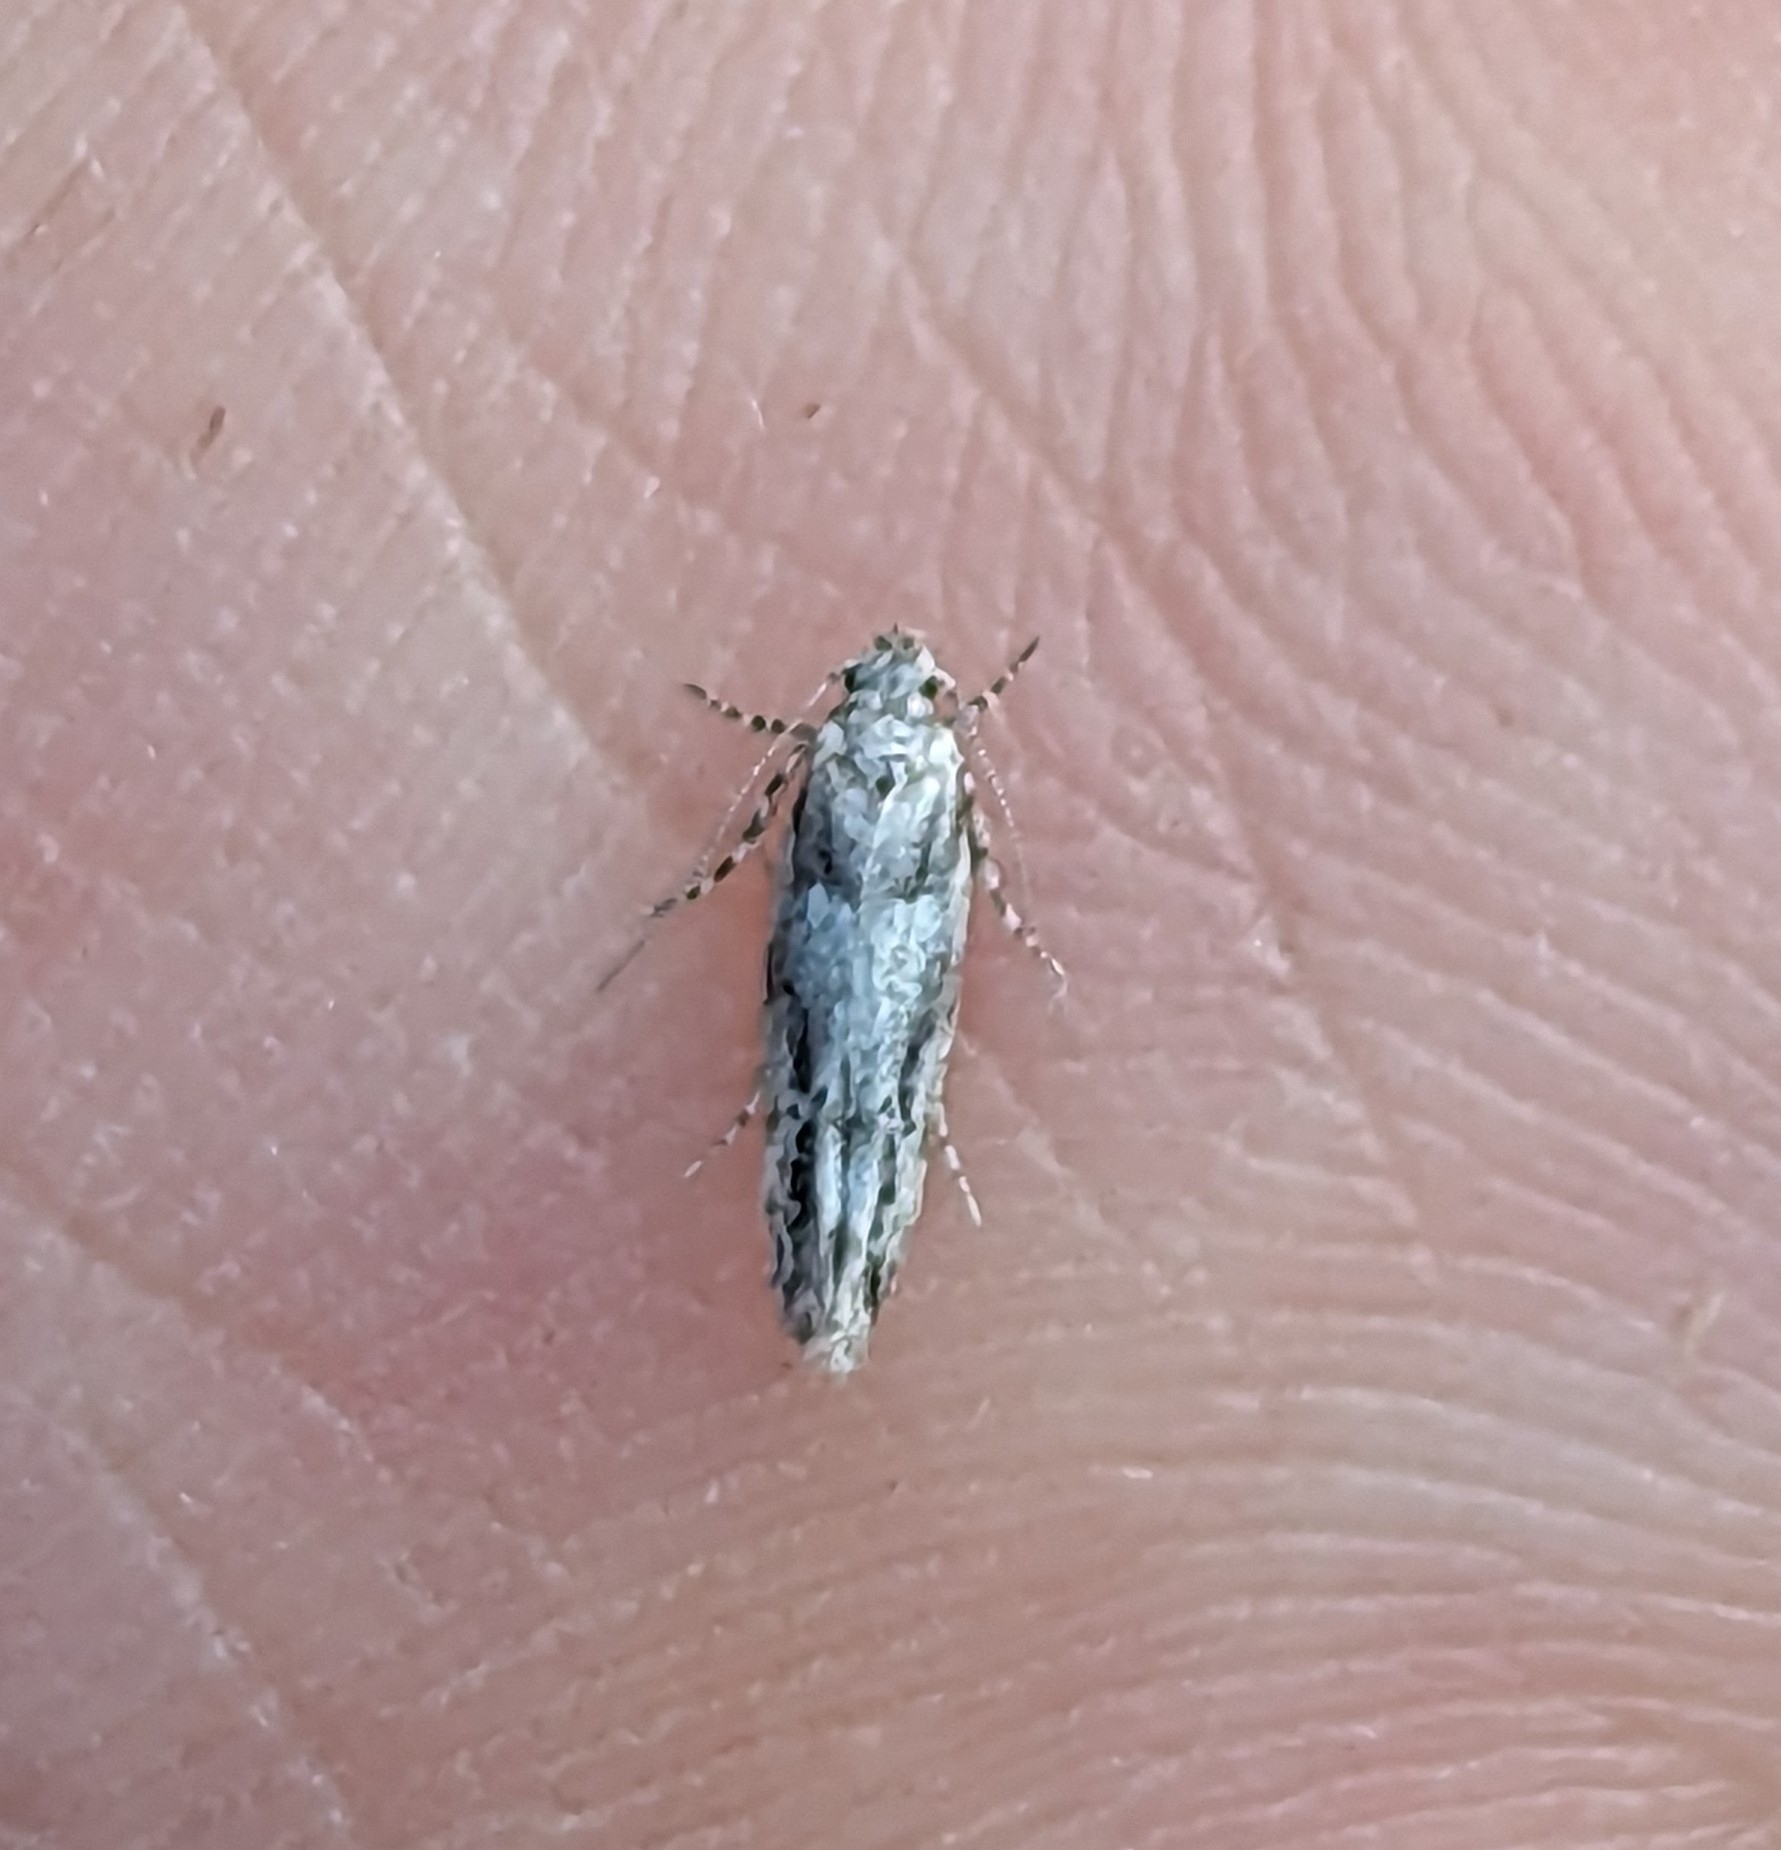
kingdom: Animalia
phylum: Arthropoda
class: Insecta
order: Lepidoptera
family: Gelechiidae
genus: Recurvaria
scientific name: Recurvaria nanella
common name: Gelechiid moth
